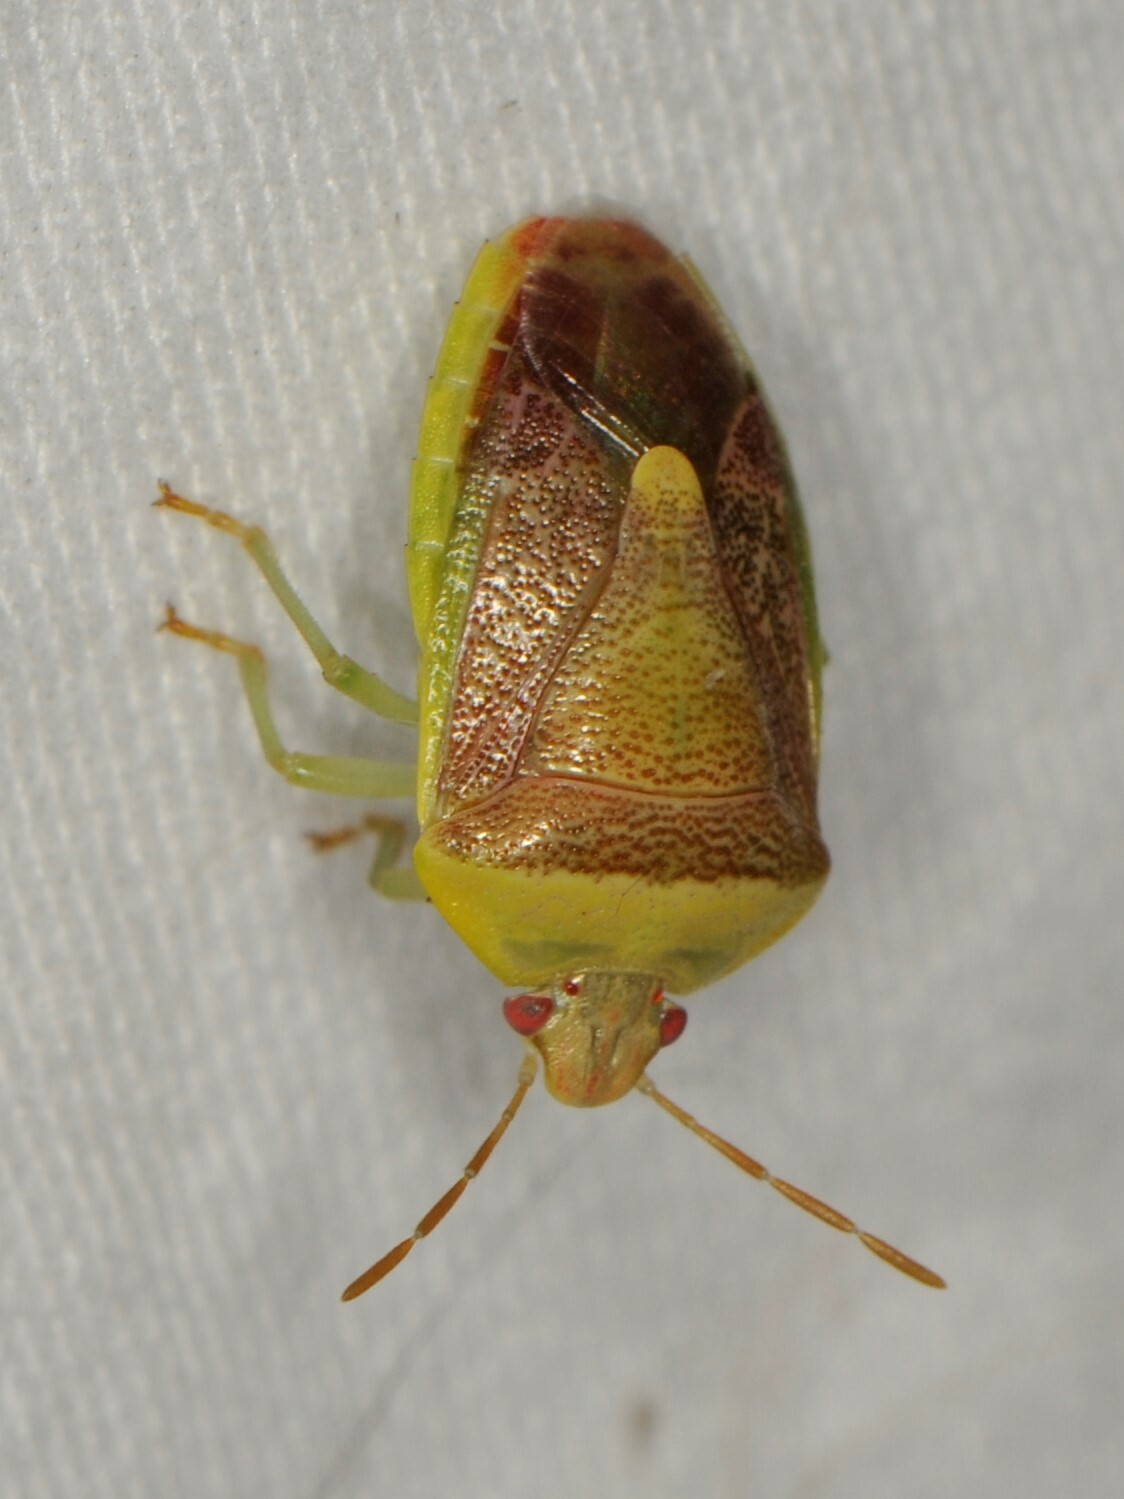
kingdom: Animalia
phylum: Arthropoda
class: Insecta
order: Hemiptera
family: Pentatomidae
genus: Banasa
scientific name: Banasa
